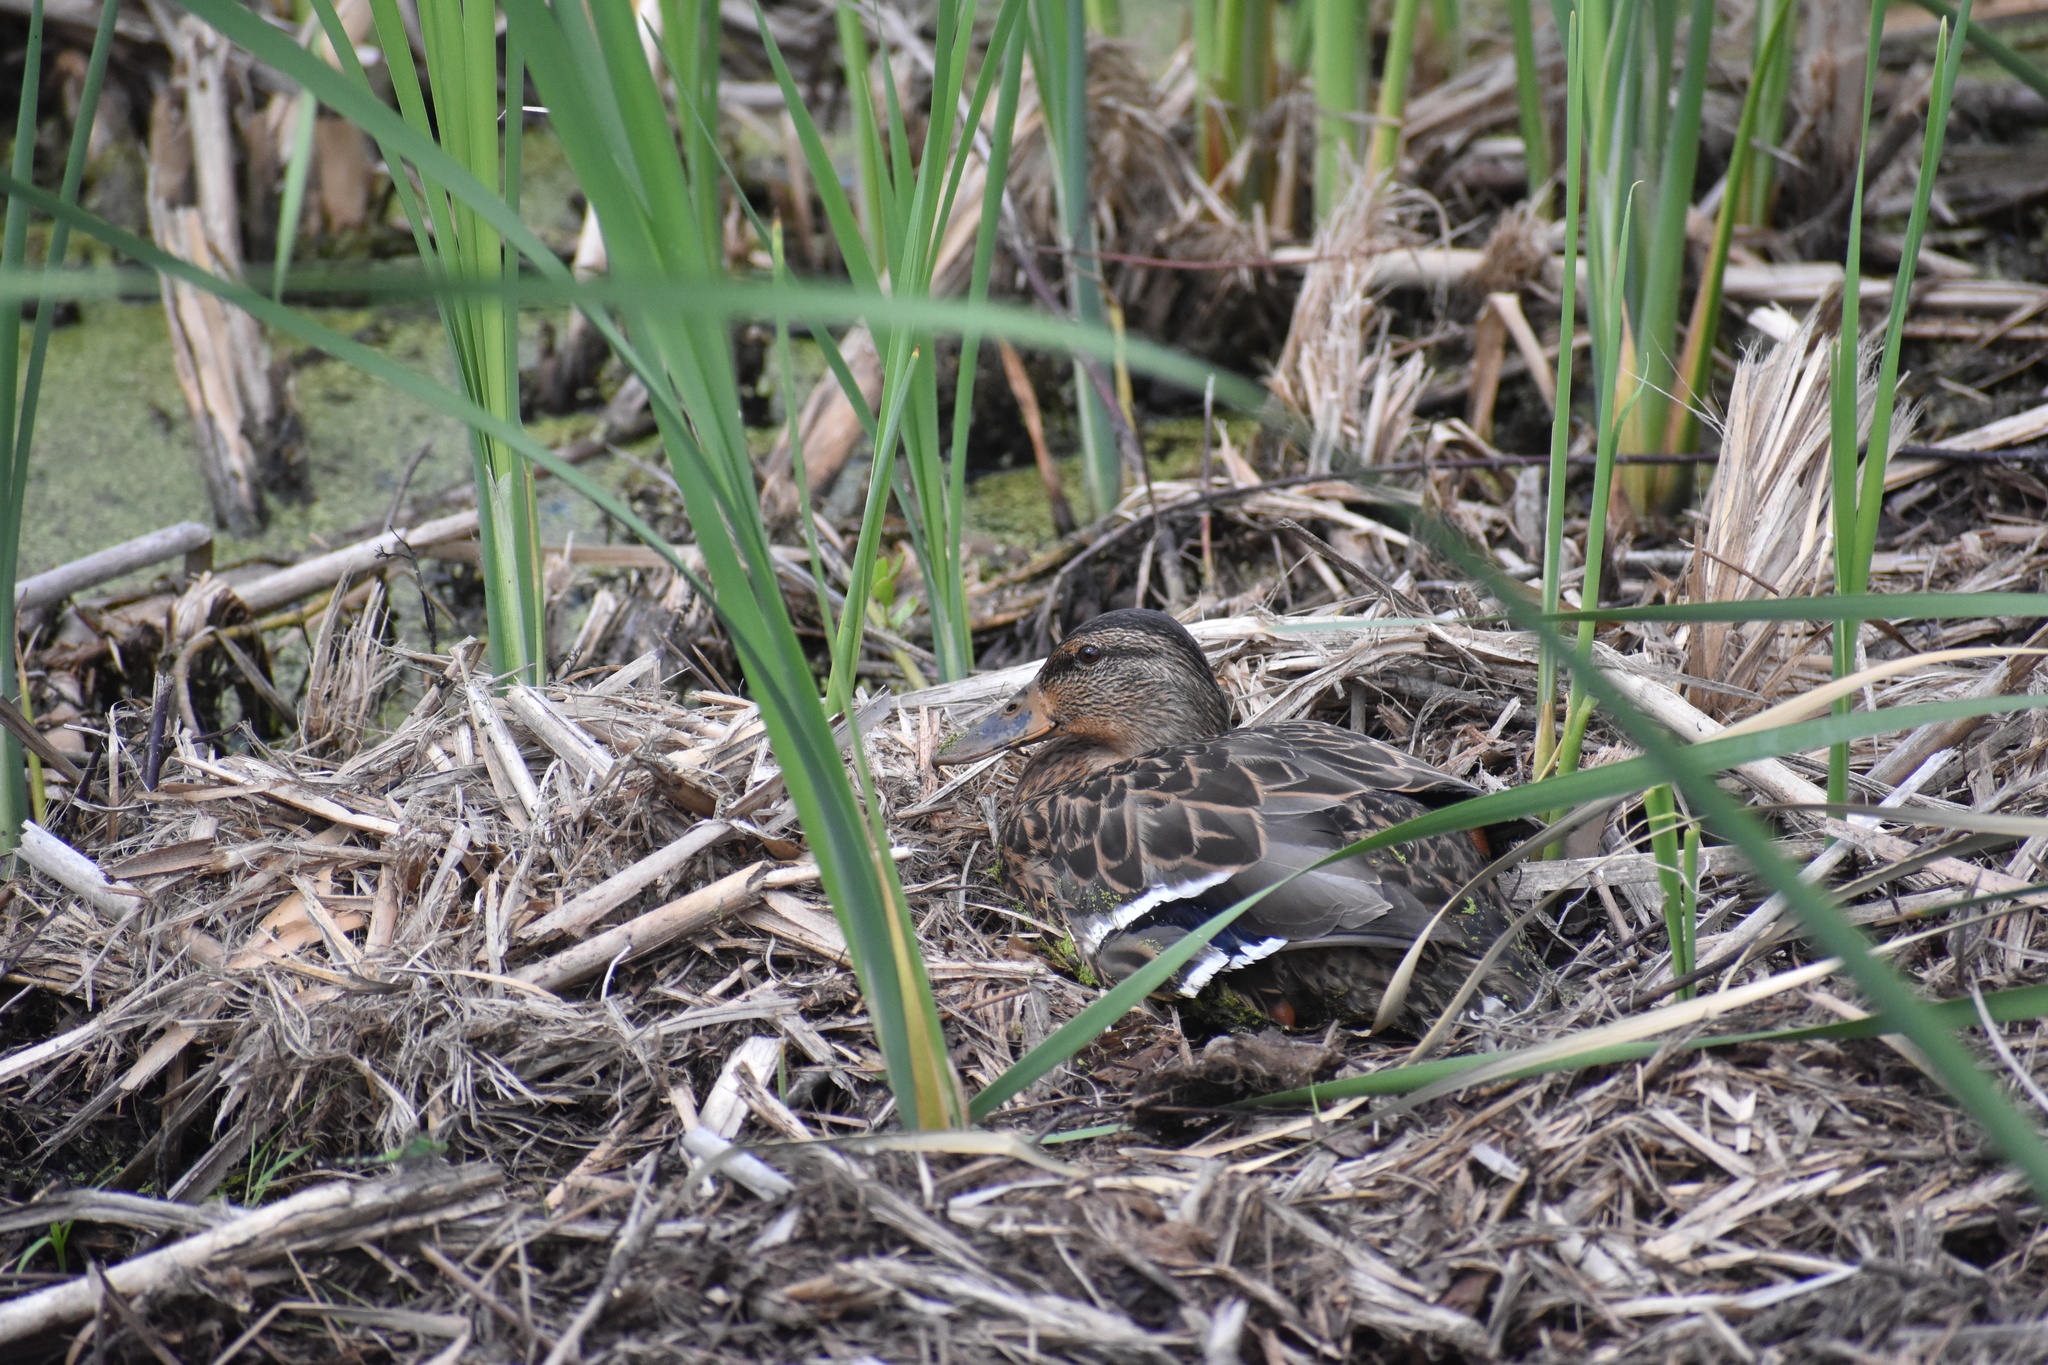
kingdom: Animalia
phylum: Chordata
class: Aves
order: Anseriformes
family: Anatidae
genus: Anas
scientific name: Anas platyrhynchos
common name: Mallard
